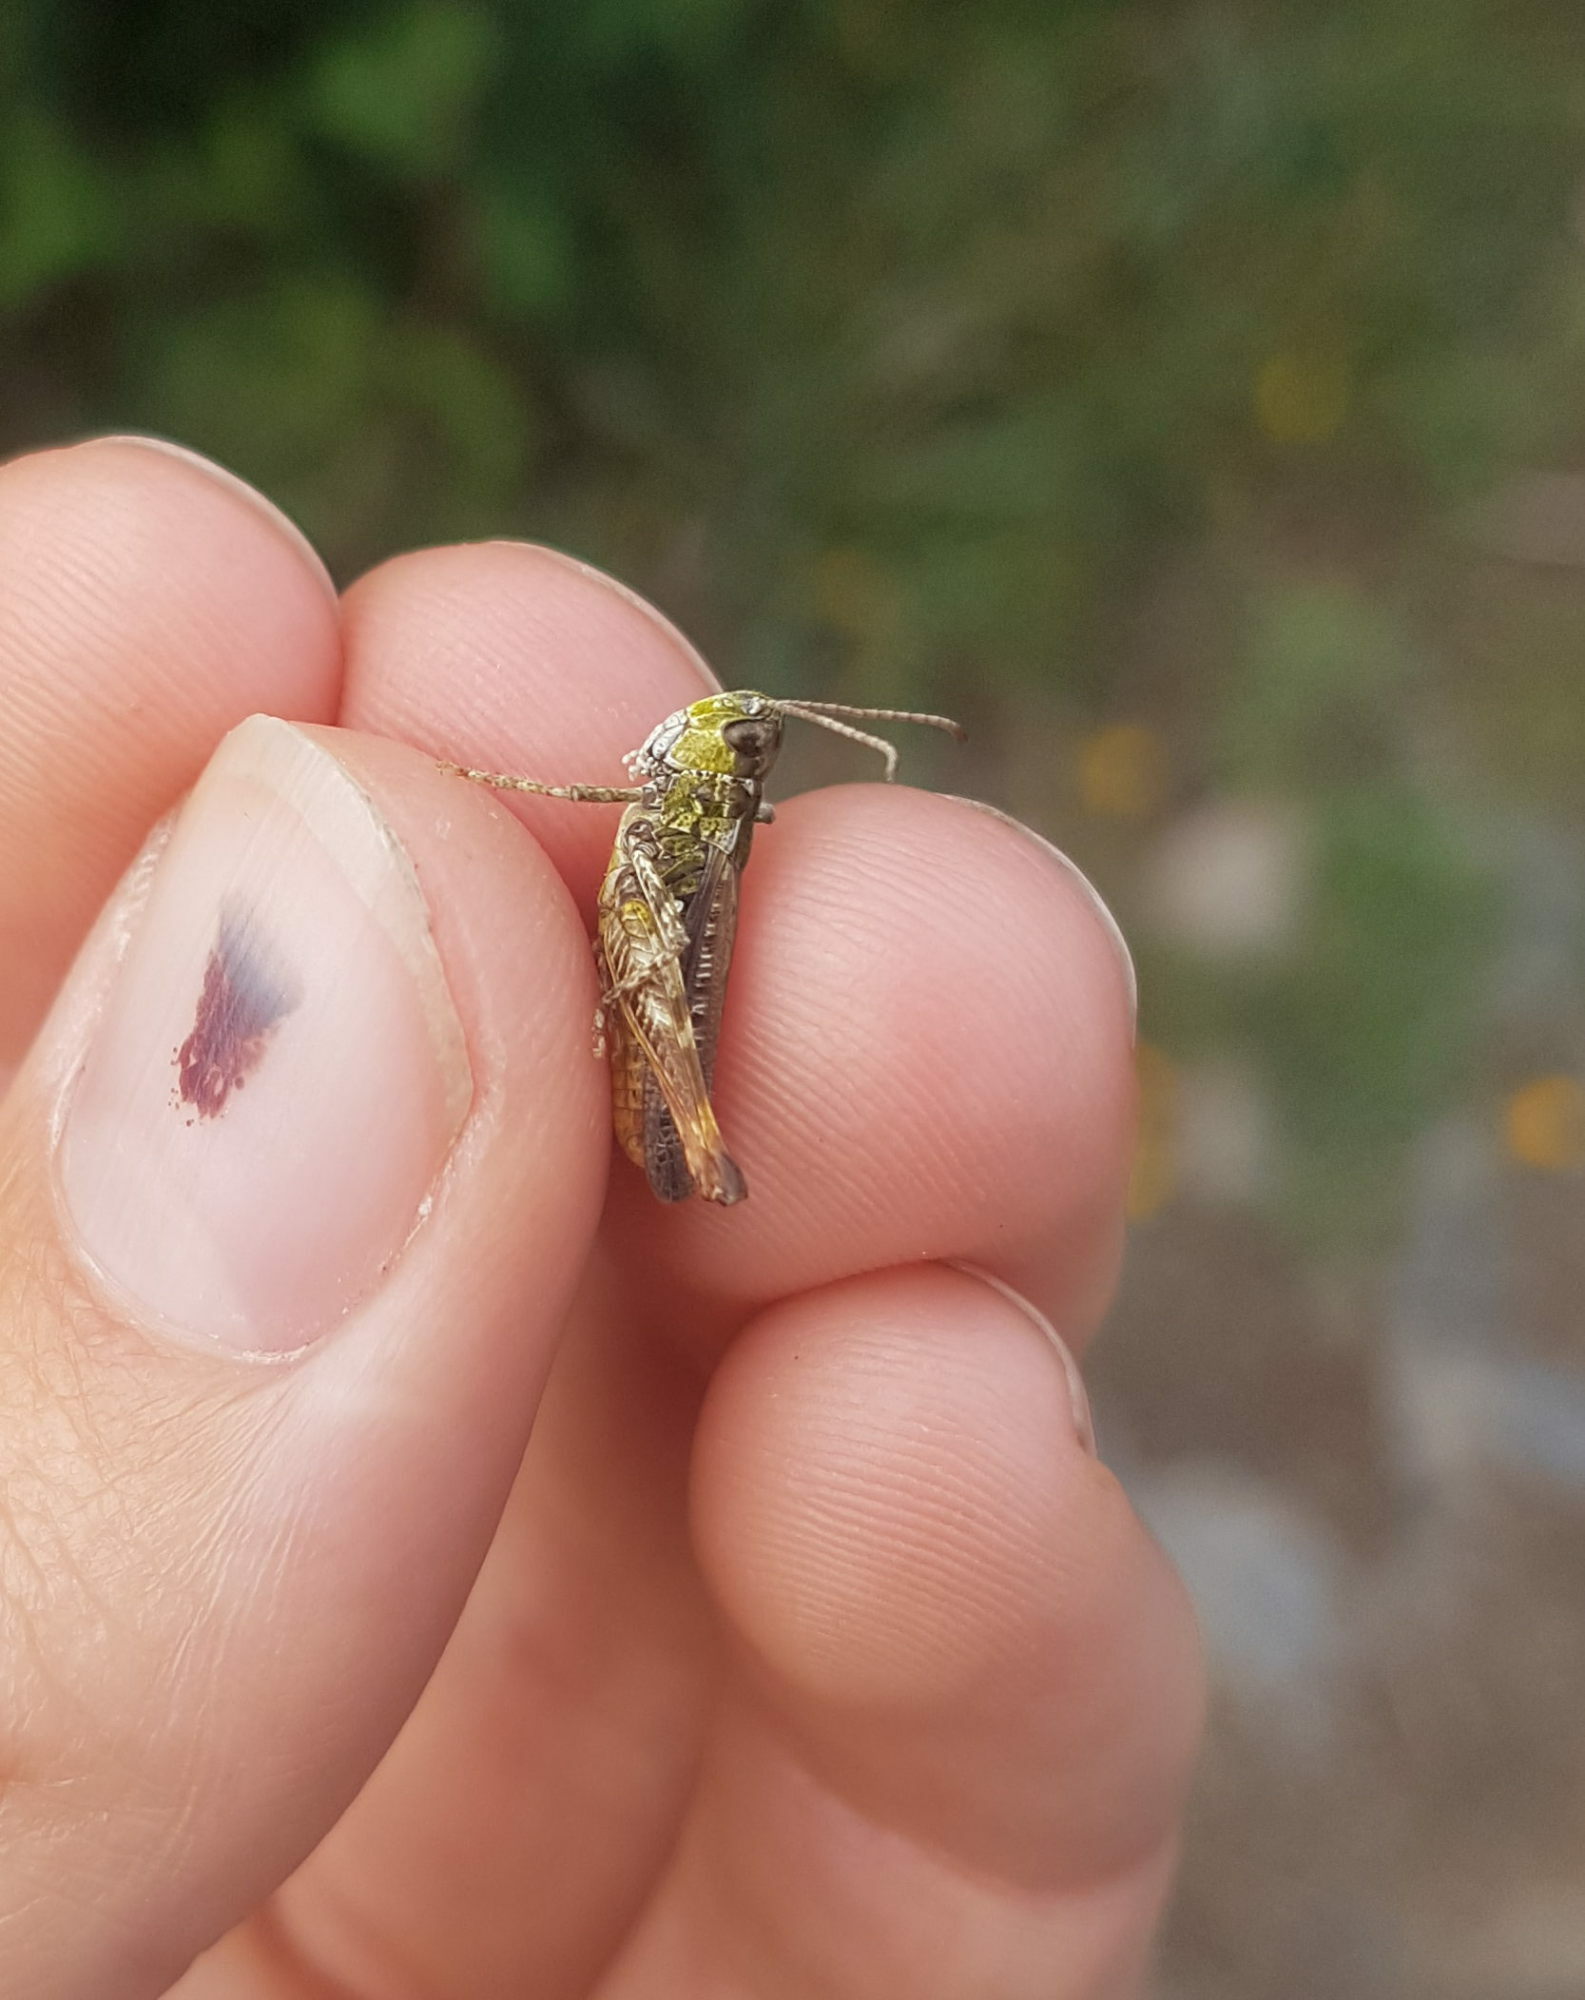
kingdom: Animalia
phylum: Arthropoda
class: Insecta
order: Orthoptera
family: Acrididae
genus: Myrmeleotettix
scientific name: Myrmeleotettix maculatus
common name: Mottled grasshopper
